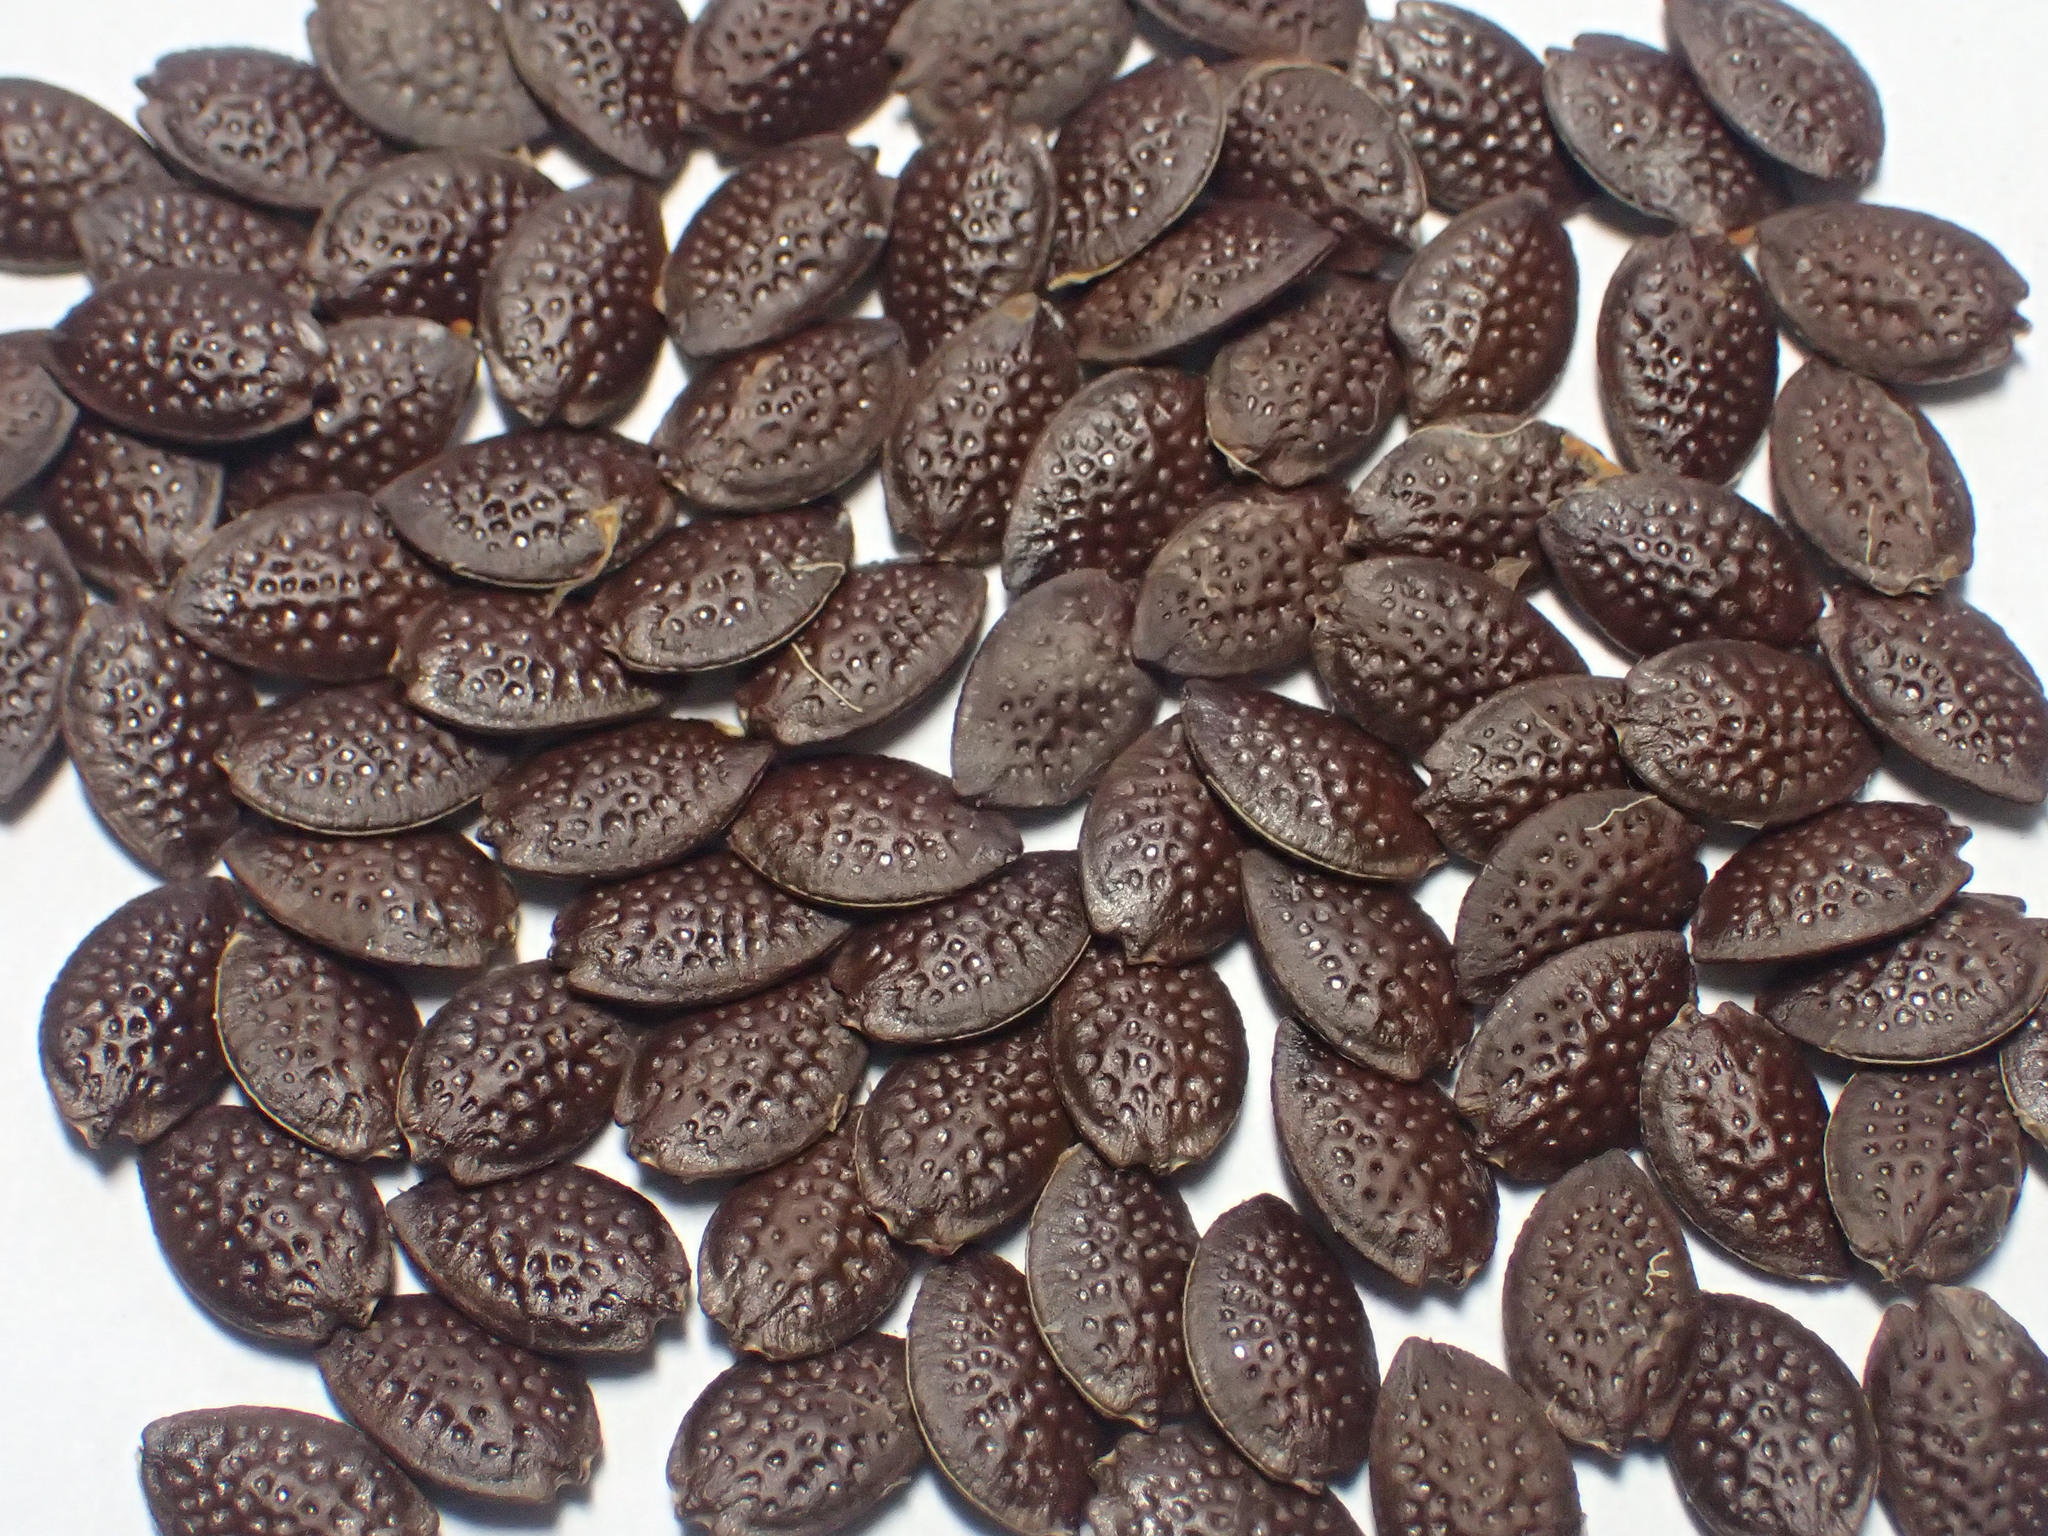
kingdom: Plantae
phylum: Tracheophyta
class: Magnoliopsida
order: Malpighiales
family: Passifloraceae
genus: Passiflora
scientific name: Passiflora edulis
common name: Purple granadilla
